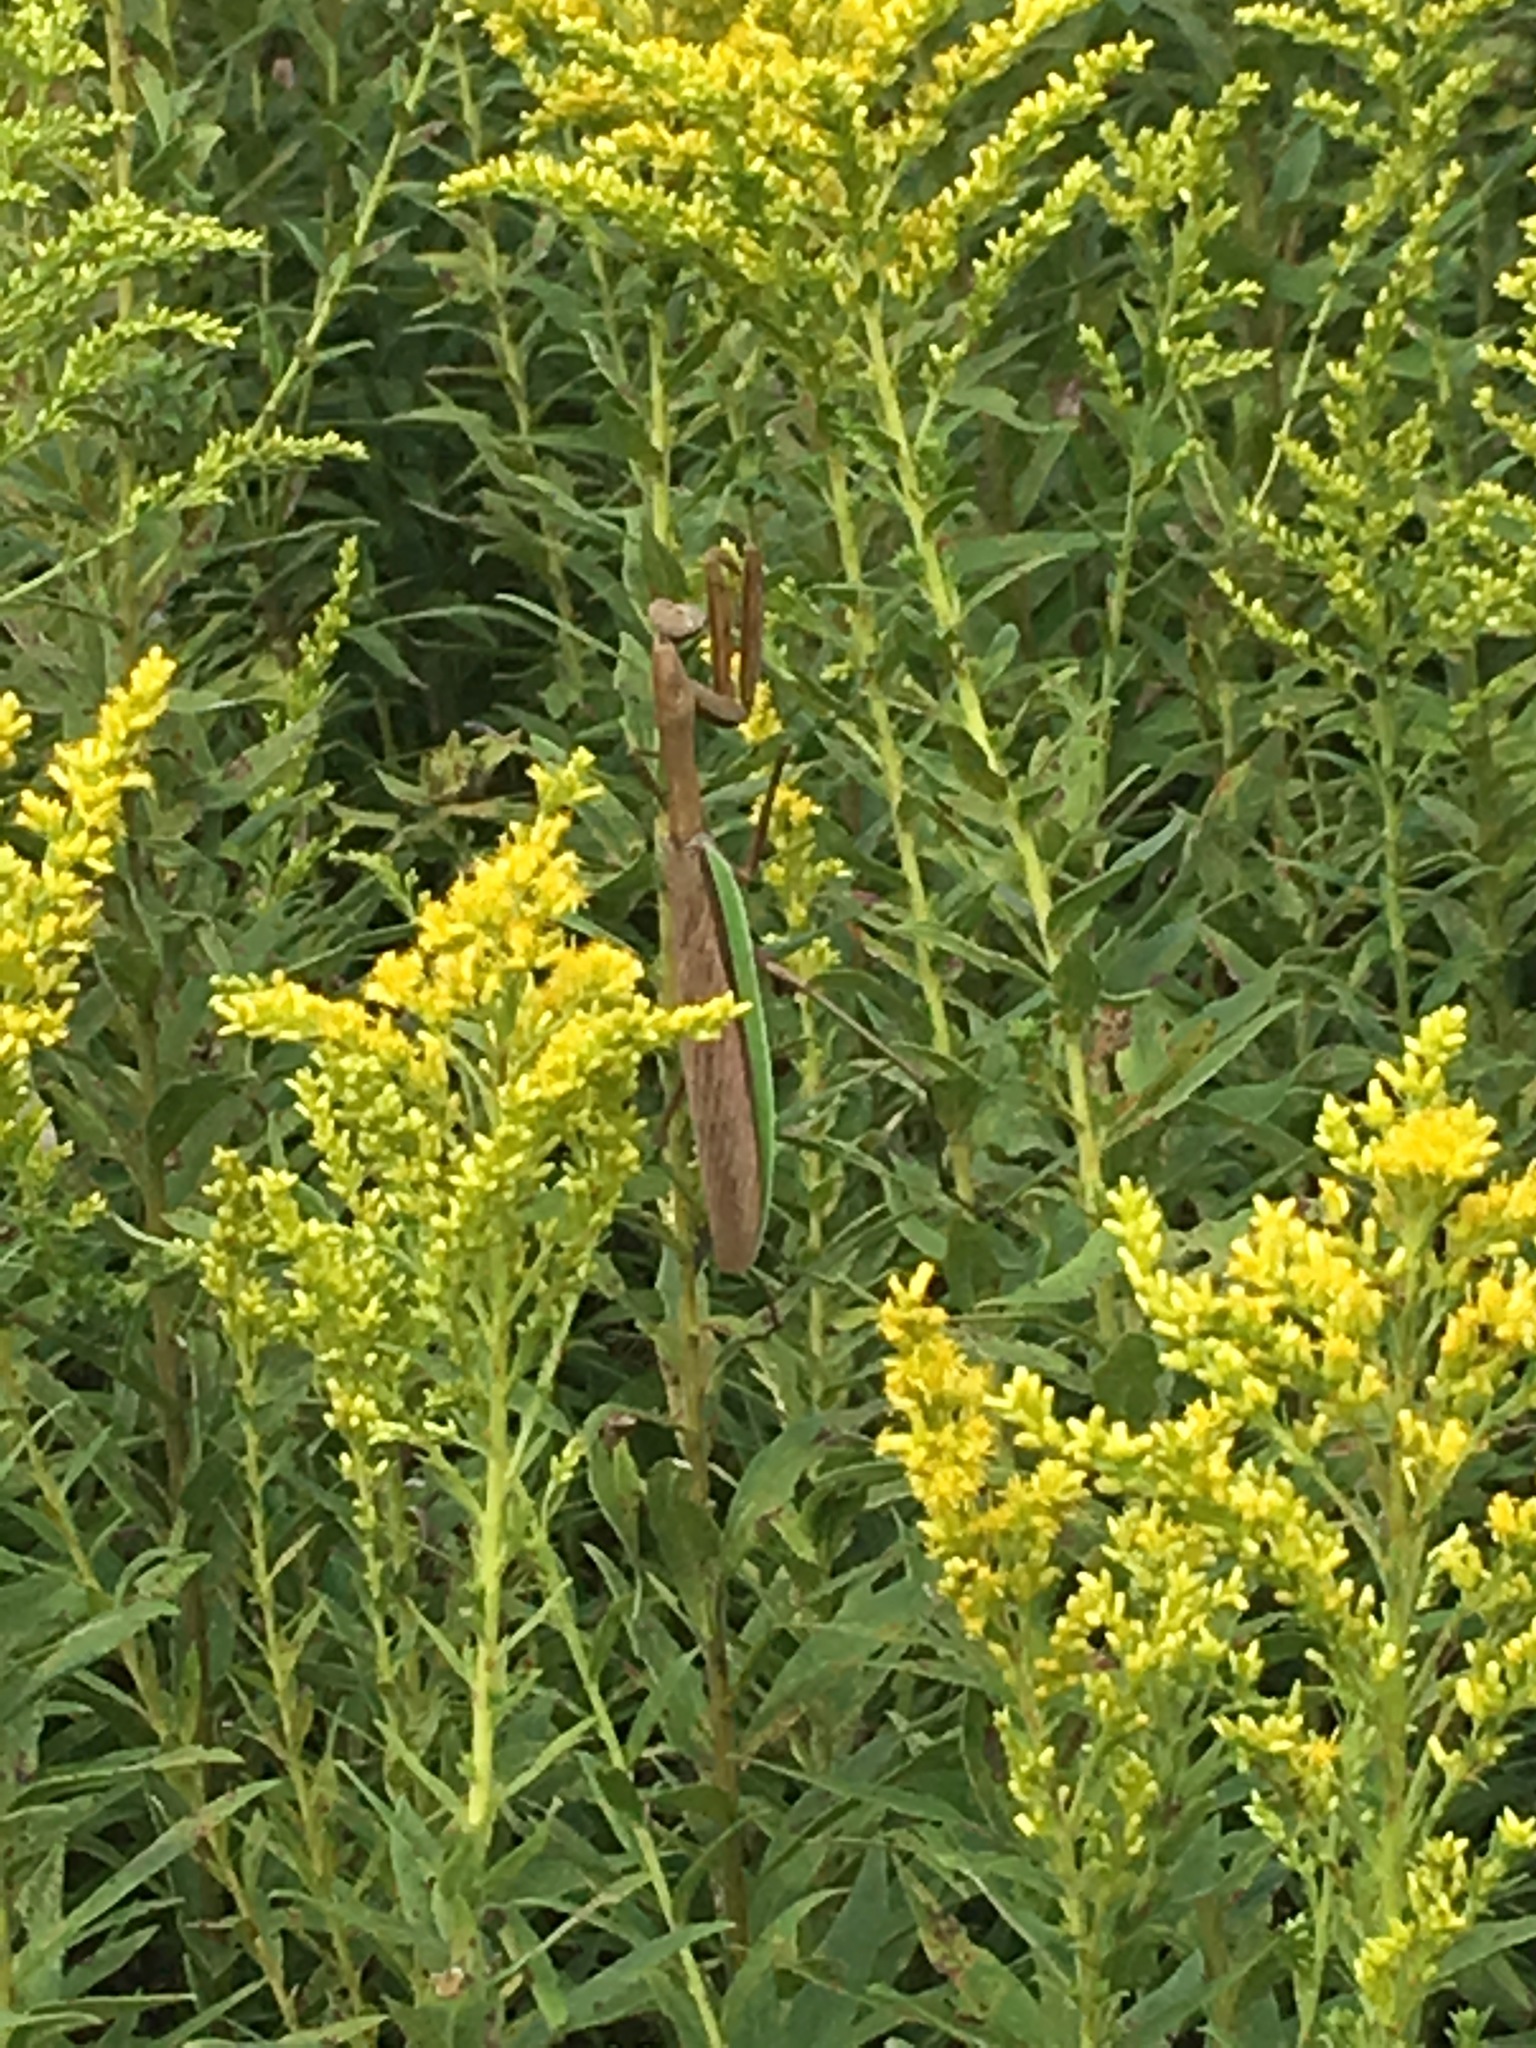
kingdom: Animalia
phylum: Arthropoda
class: Insecta
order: Mantodea
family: Mantidae
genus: Tenodera
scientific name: Tenodera sinensis
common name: Chinese mantis
